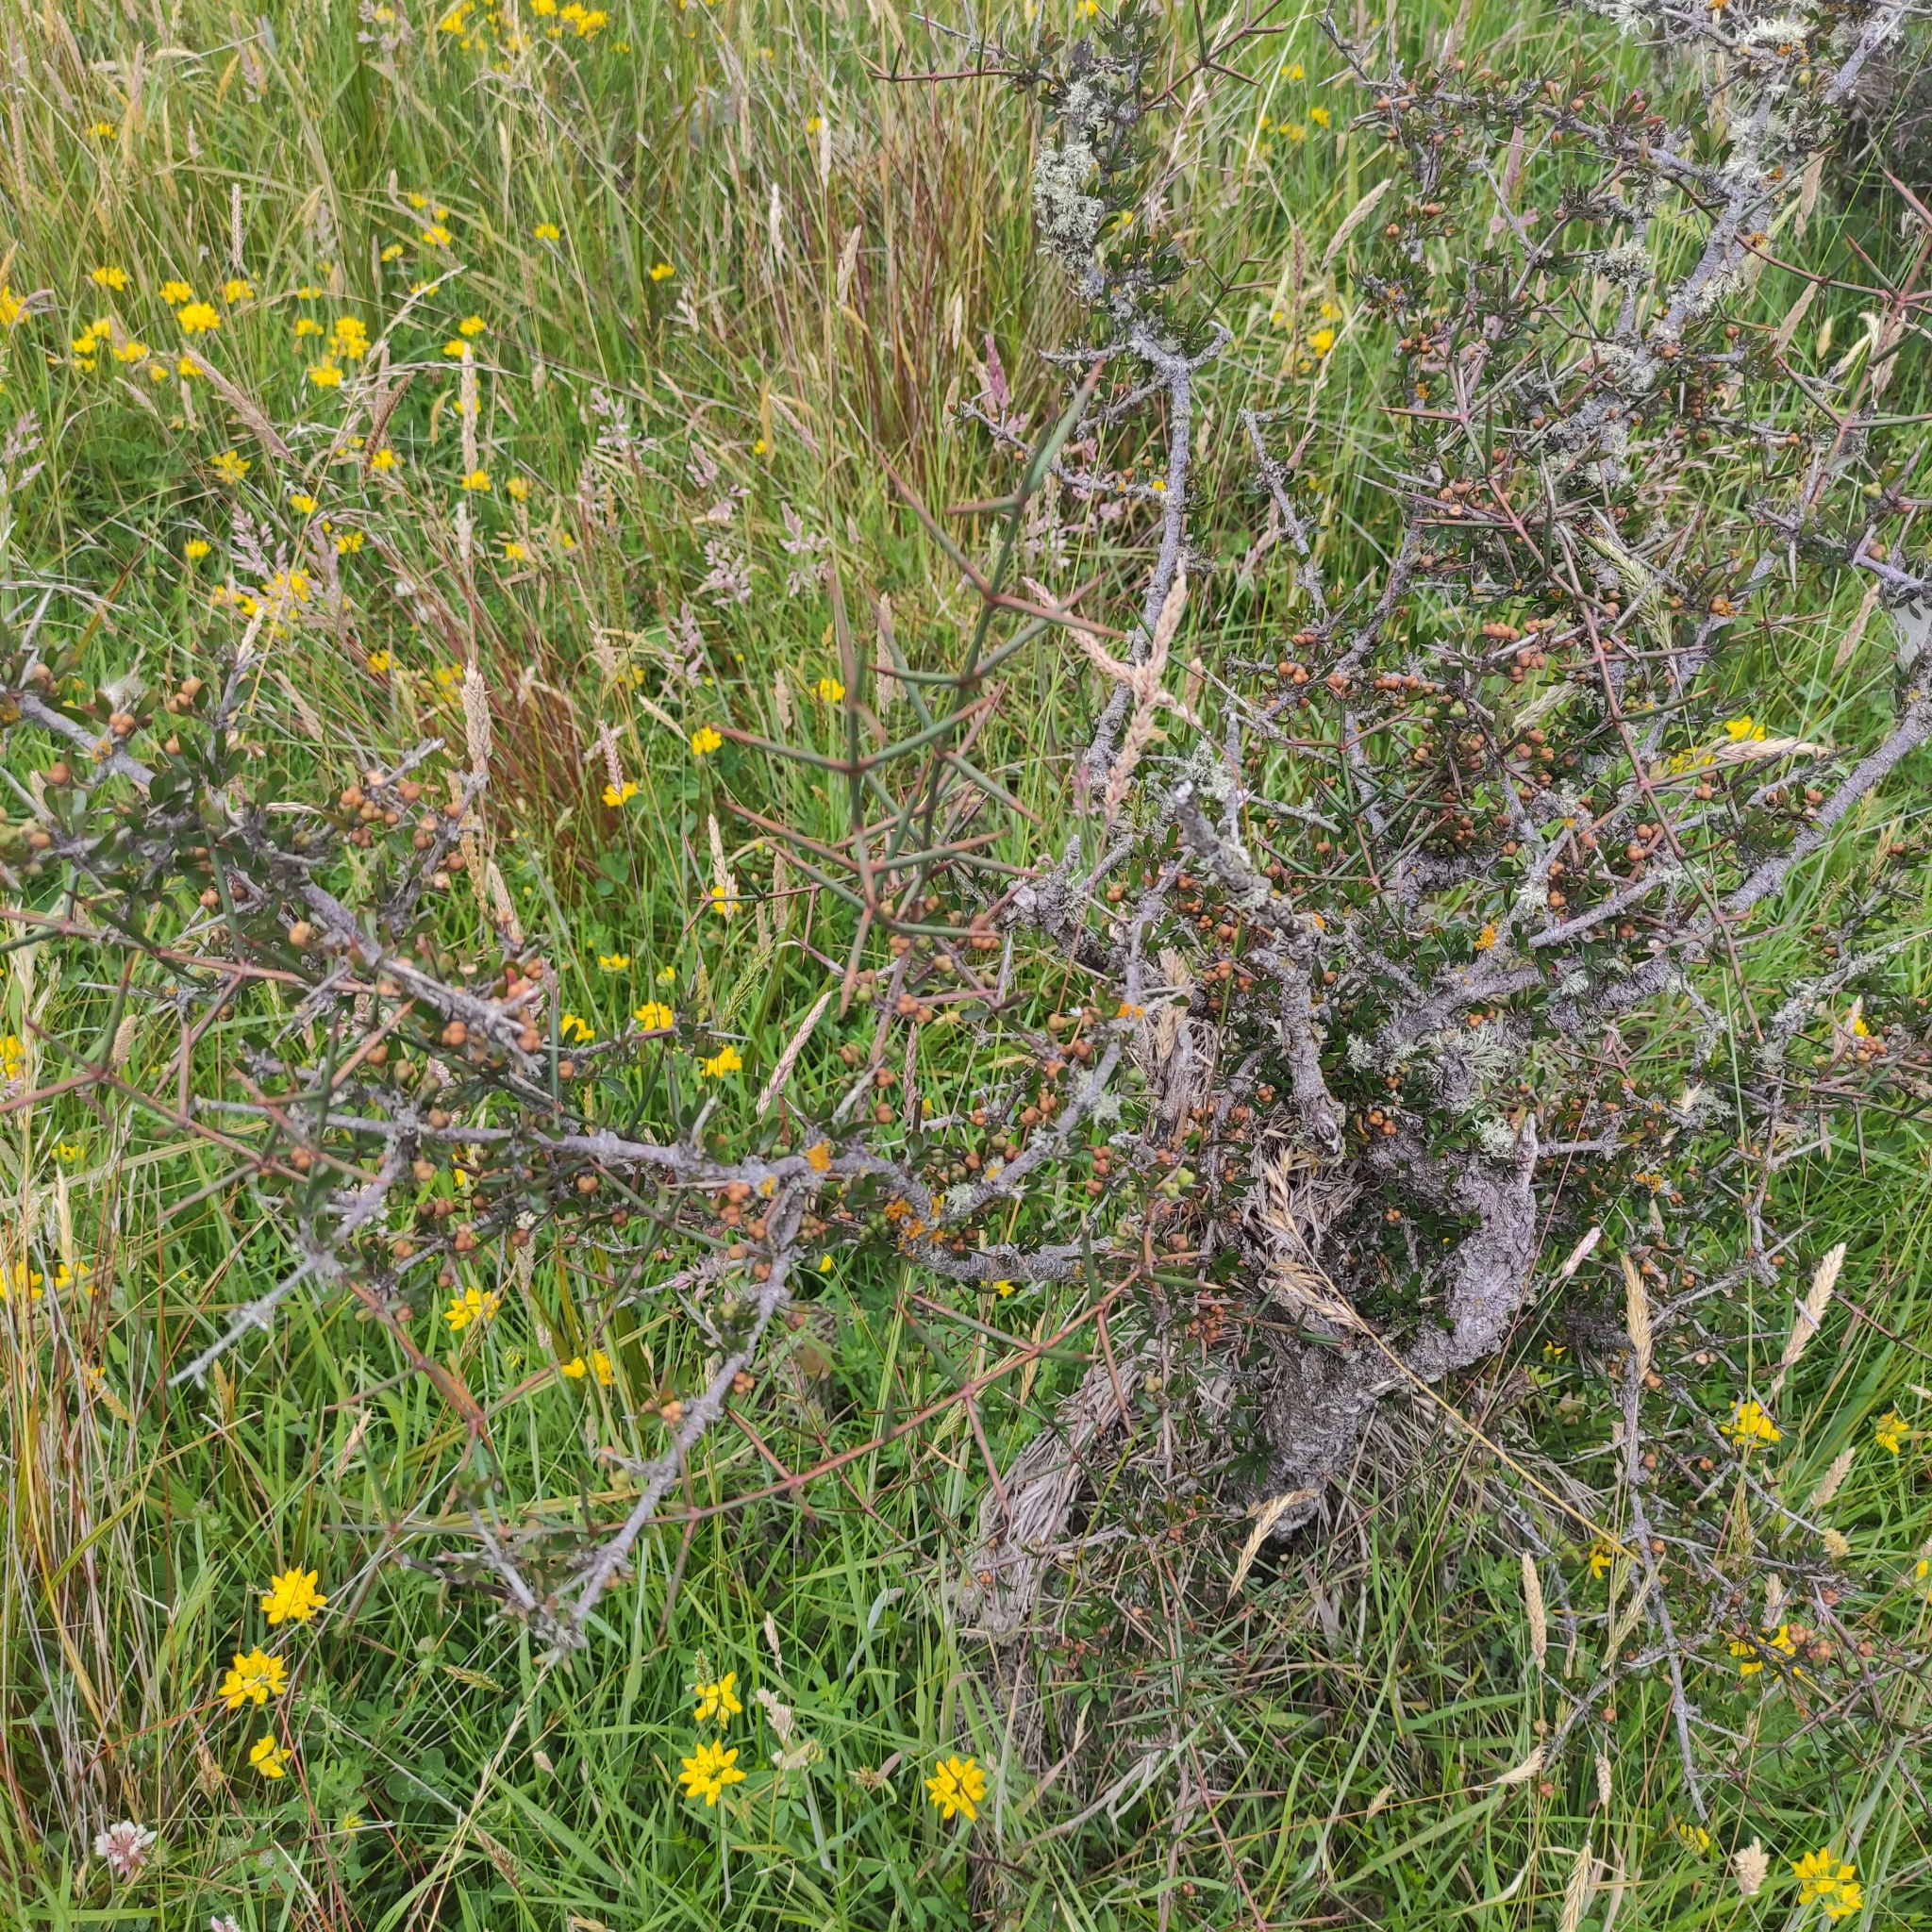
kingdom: Plantae
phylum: Tracheophyta
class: Magnoliopsida
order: Rosales
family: Rhamnaceae
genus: Discaria
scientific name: Discaria toumatou
